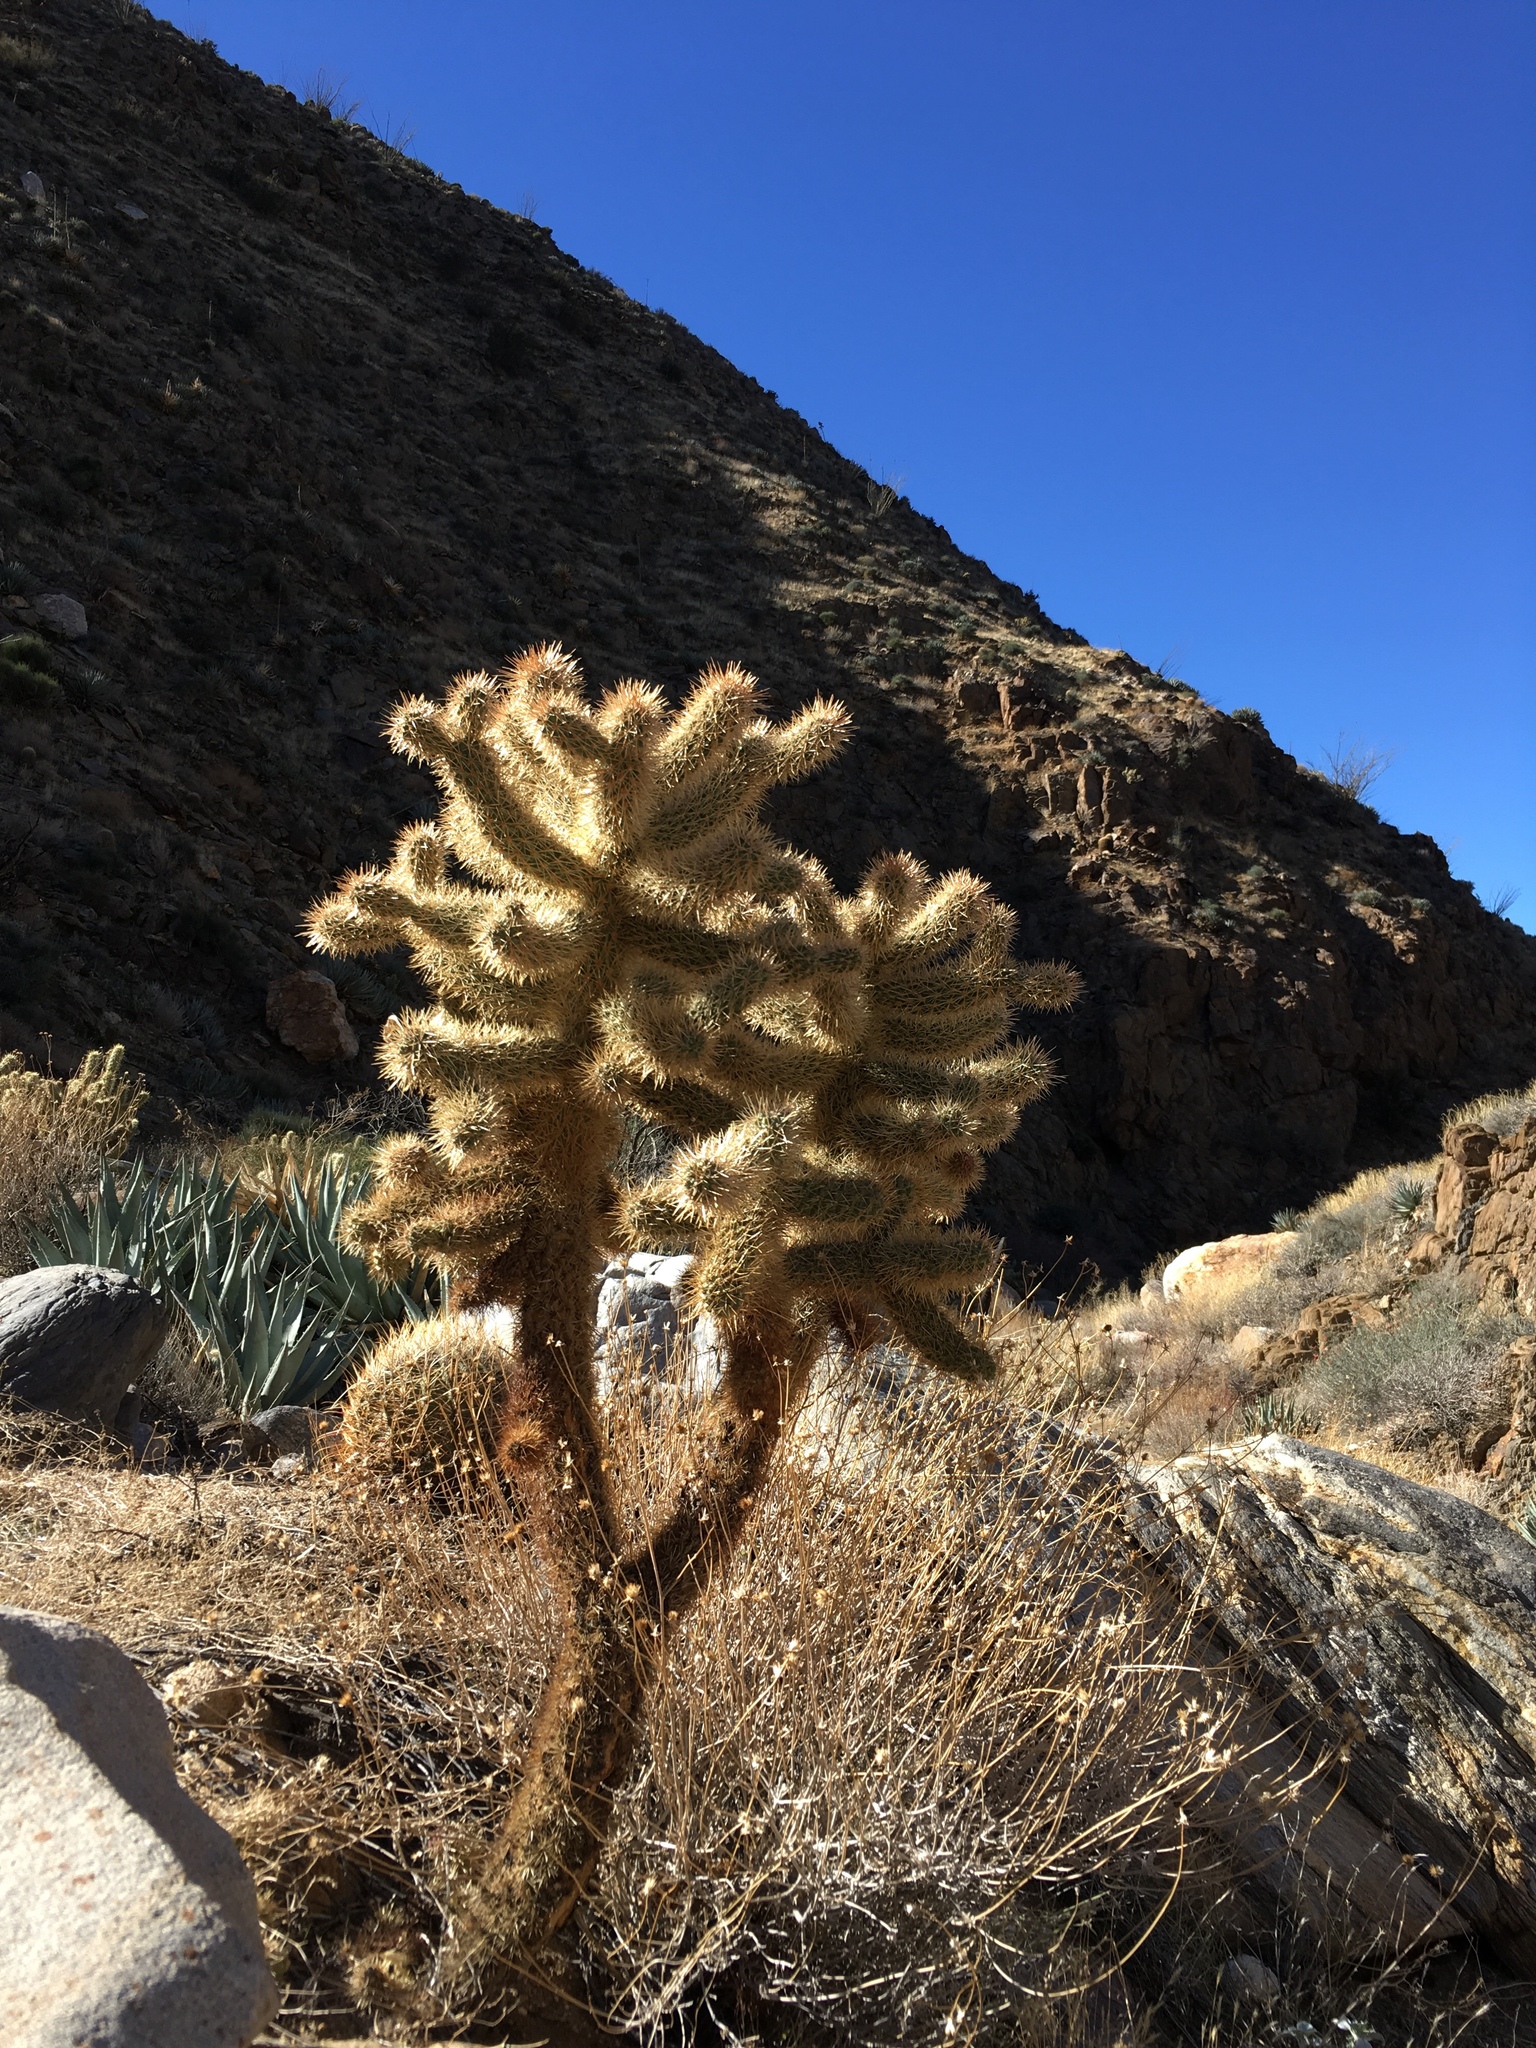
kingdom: Plantae
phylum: Tracheophyta
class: Magnoliopsida
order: Caryophyllales
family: Cactaceae
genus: Cylindropuntia
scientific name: Cylindropuntia fosbergii
